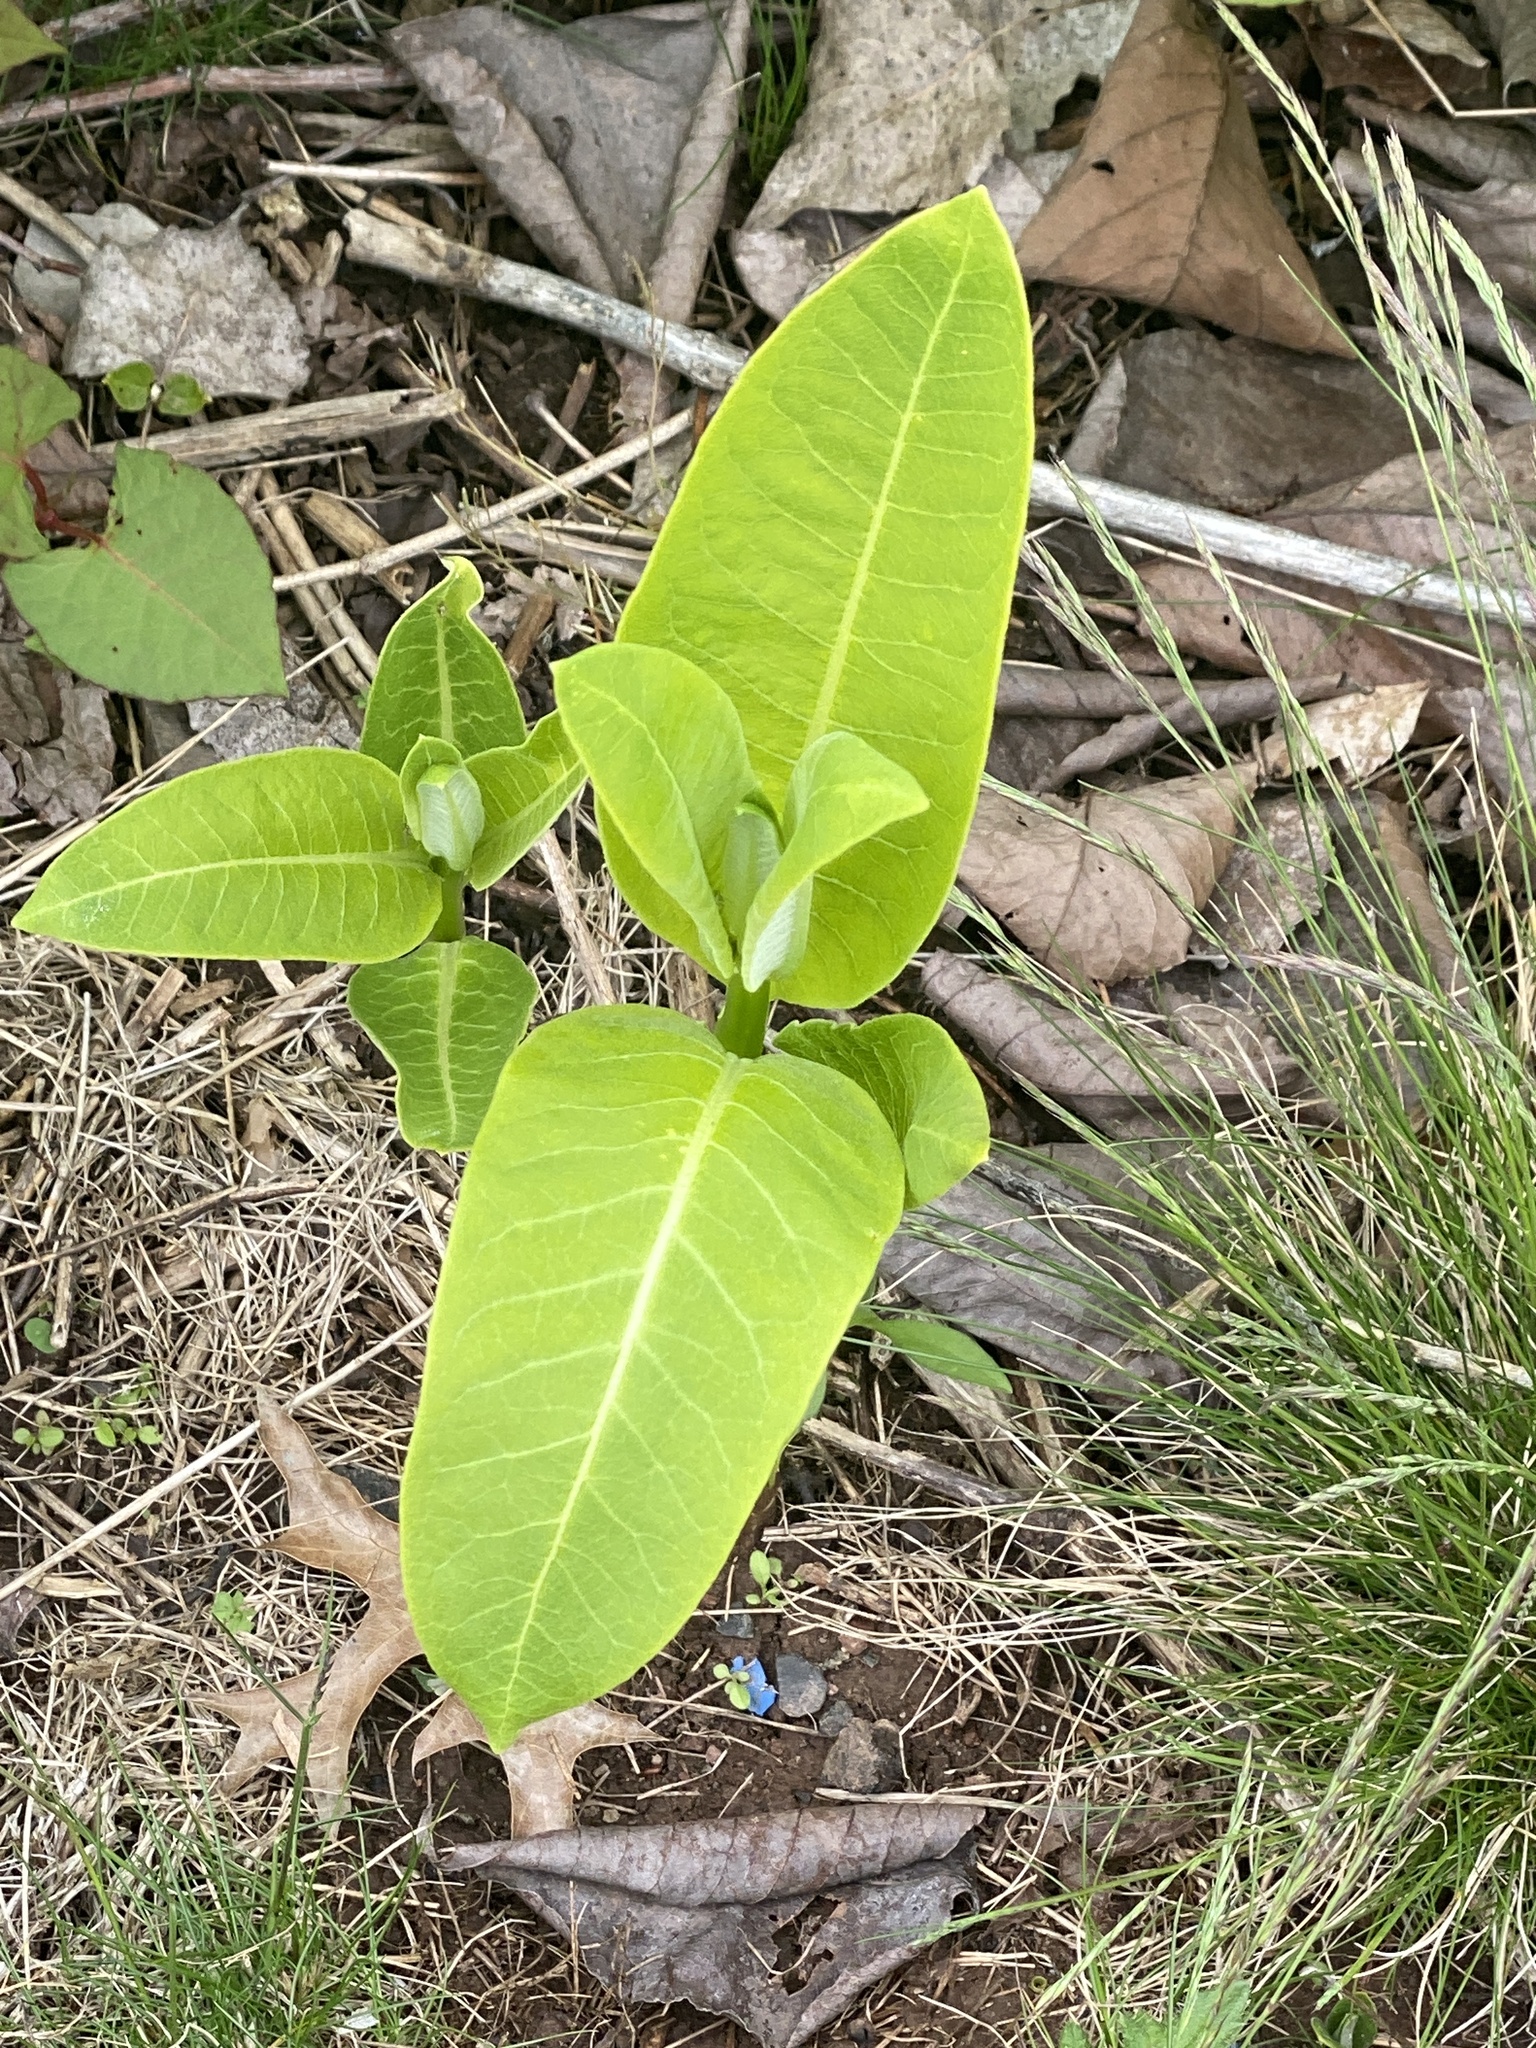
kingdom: Plantae
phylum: Tracheophyta
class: Magnoliopsida
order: Gentianales
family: Apocynaceae
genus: Asclepias
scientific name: Asclepias syriaca
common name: Common milkweed
